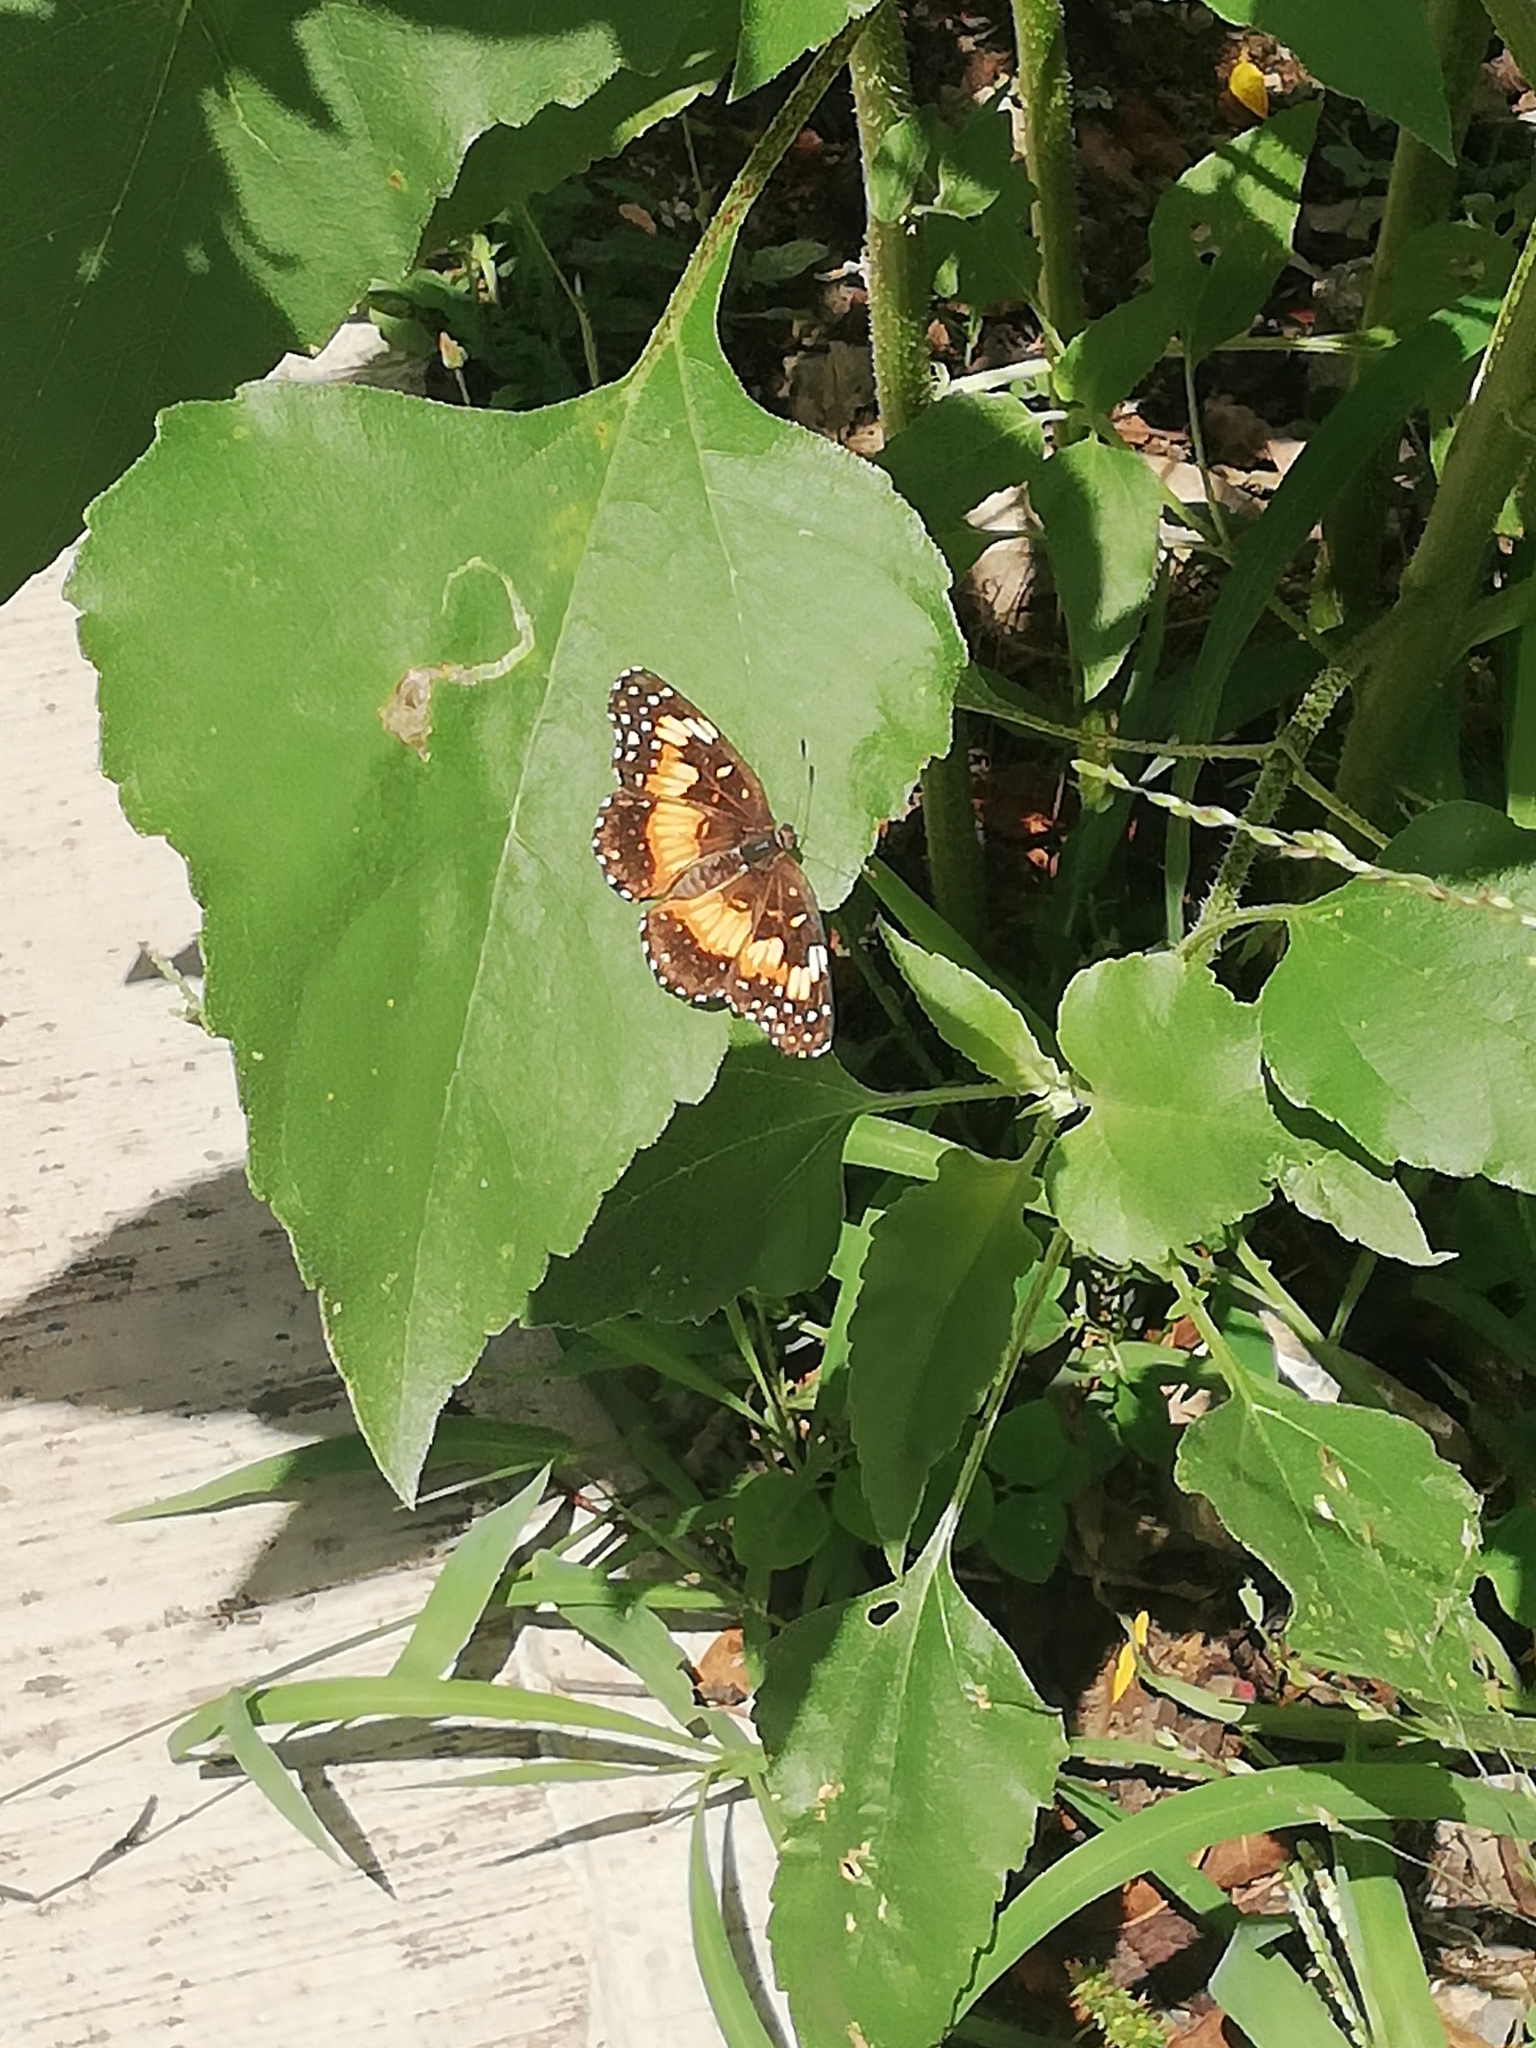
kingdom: Animalia
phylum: Arthropoda
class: Insecta
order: Lepidoptera
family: Nymphalidae
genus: Chlosyne
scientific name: Chlosyne lacinia
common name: Bordered patch
